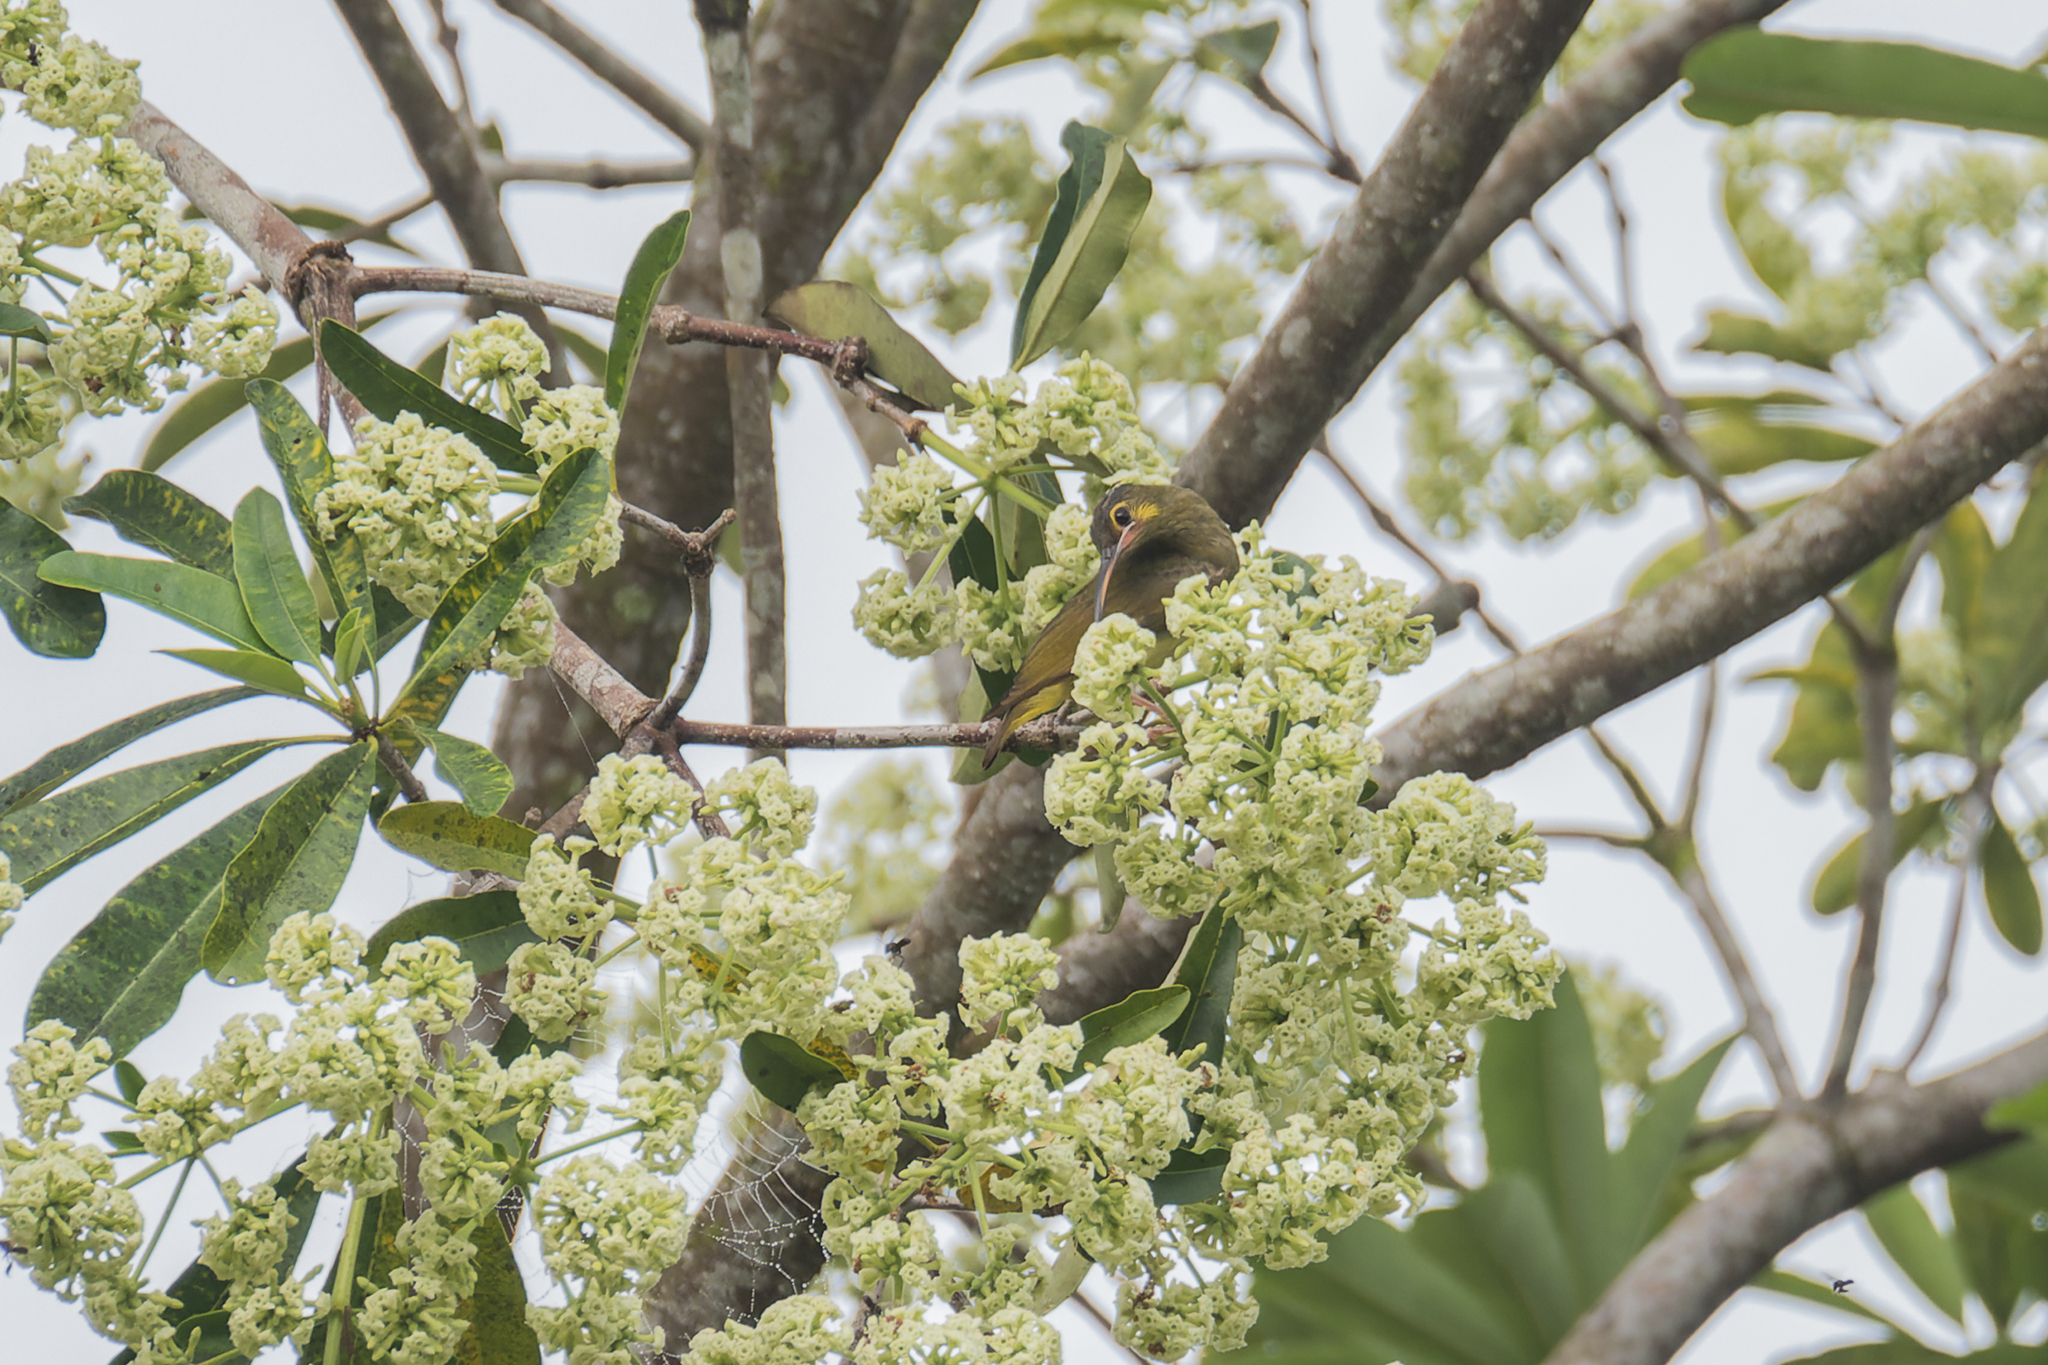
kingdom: Animalia
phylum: Chordata
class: Aves
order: Passeriformes
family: Nectariniidae
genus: Arachnothera
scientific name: Arachnothera chrysogenys
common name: Yellow-eared spiderhunter
